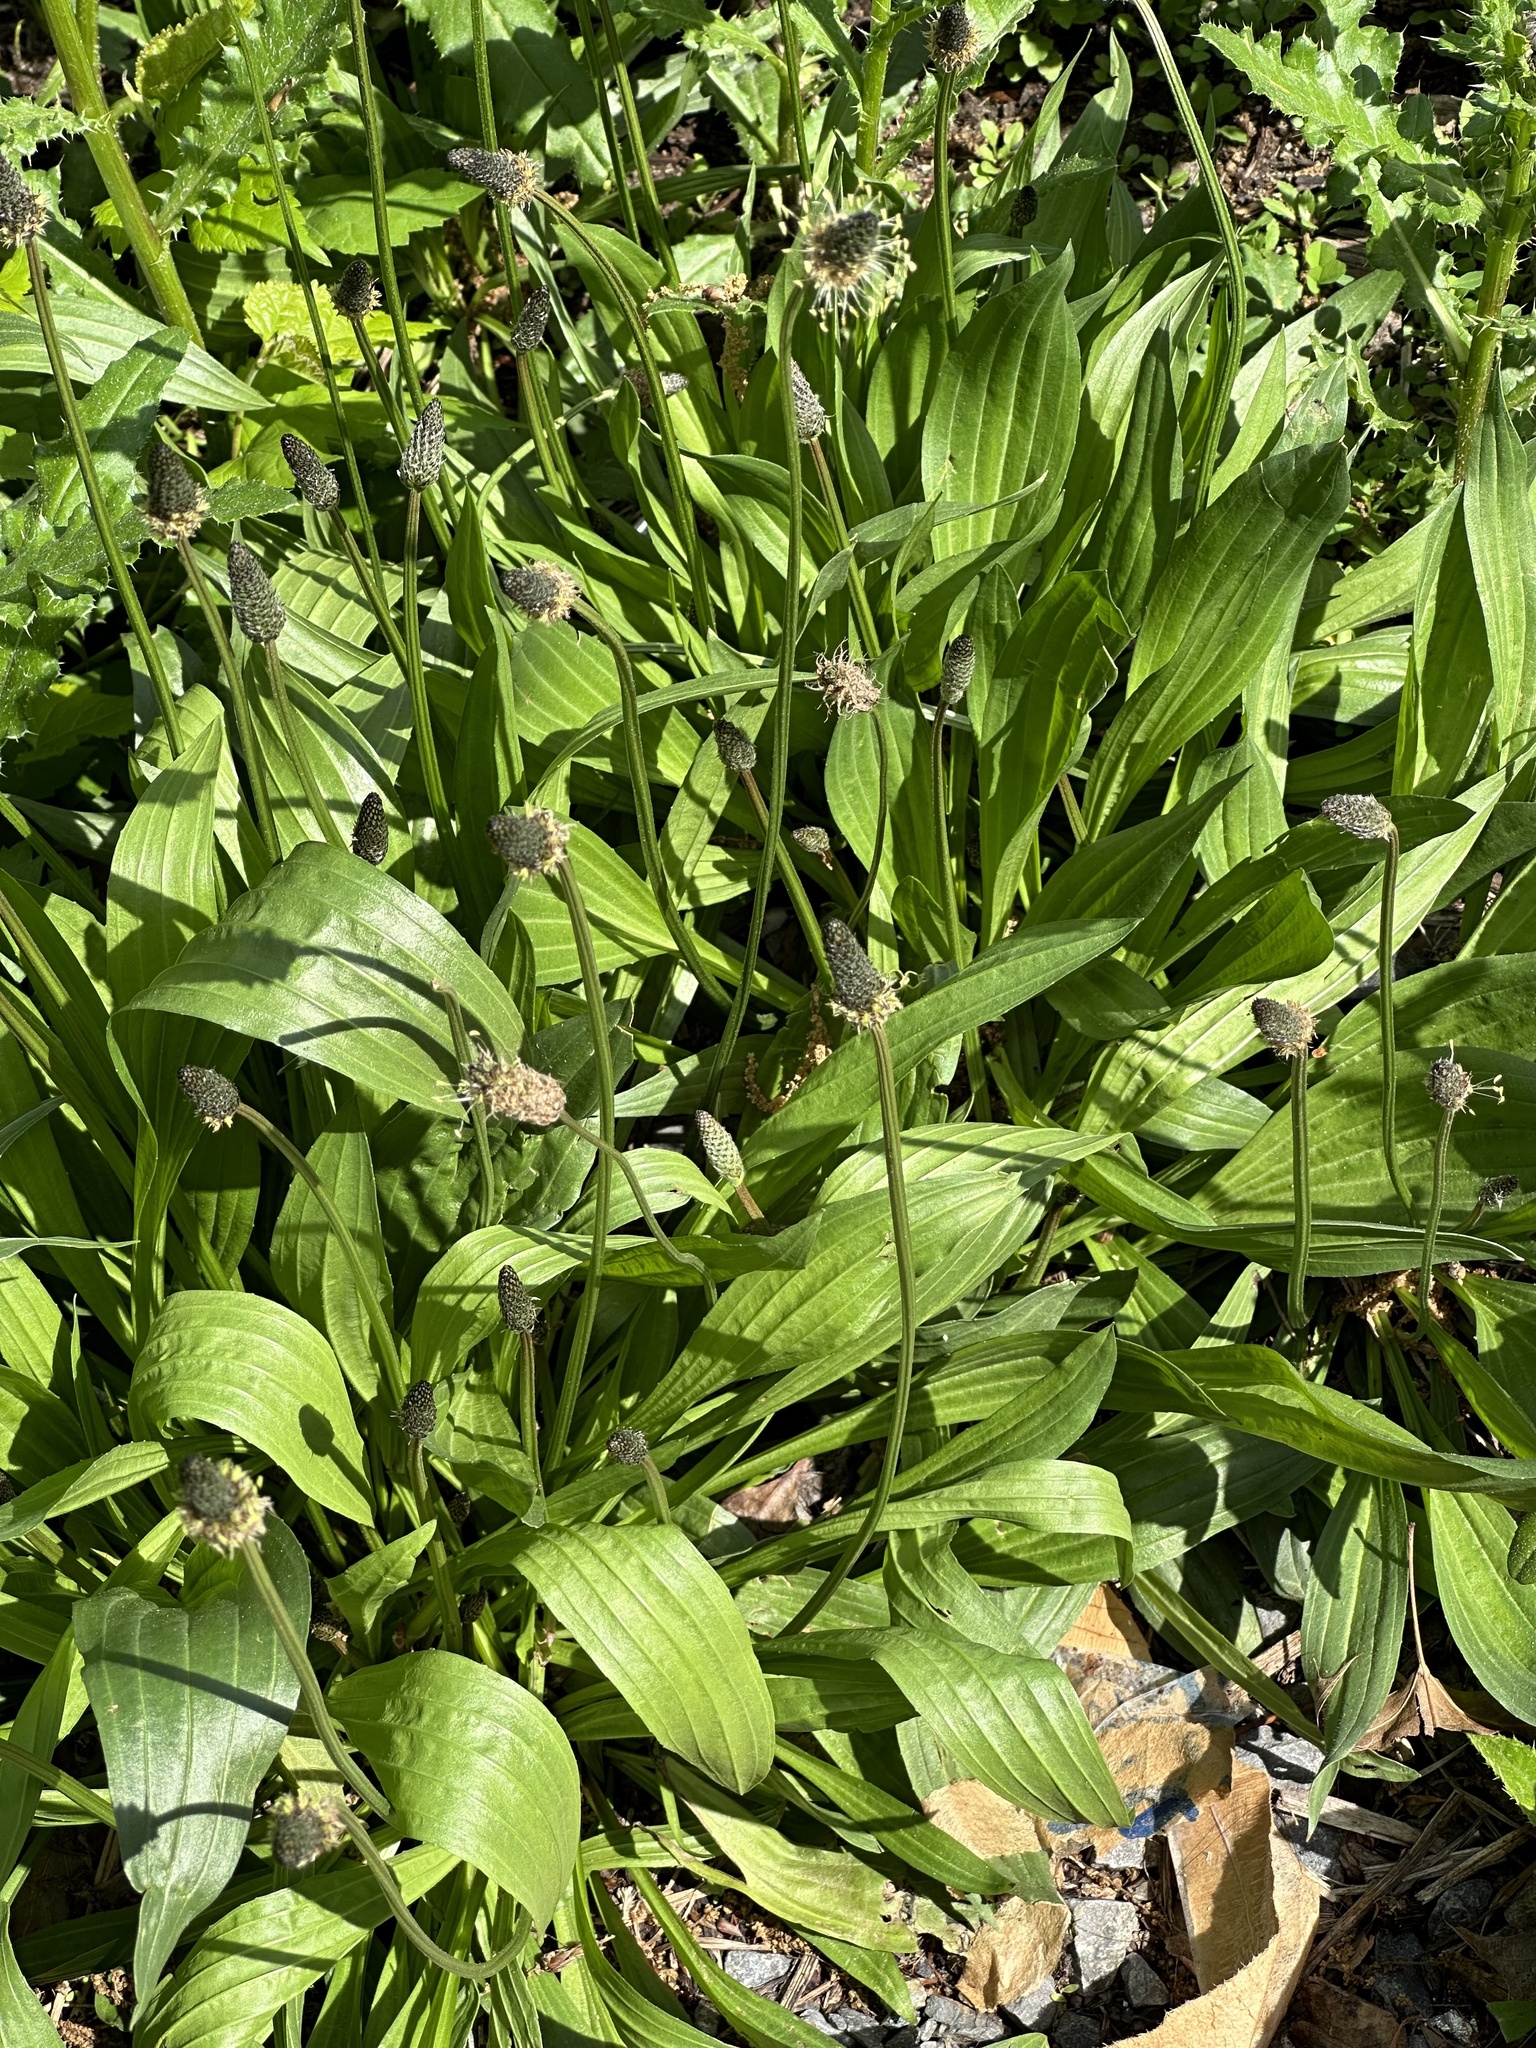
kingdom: Plantae
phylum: Tracheophyta
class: Magnoliopsida
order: Lamiales
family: Plantaginaceae
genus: Plantago
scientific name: Plantago lanceolata
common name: Ribwort plantain
